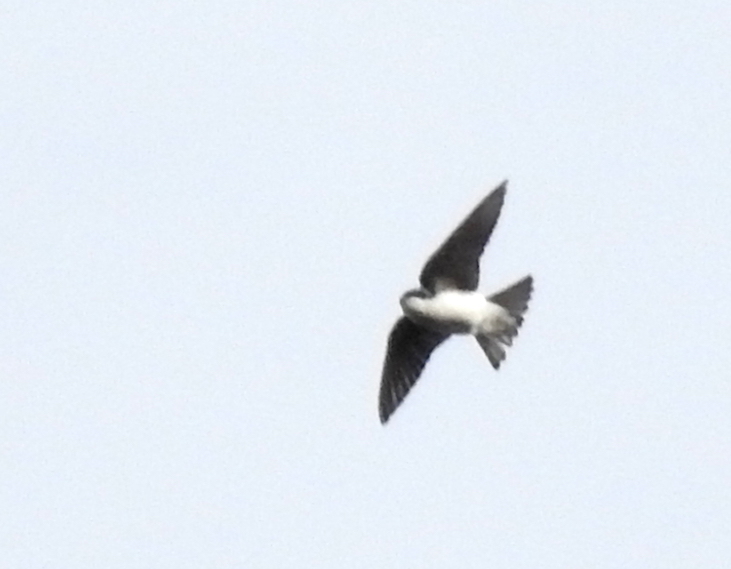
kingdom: Animalia
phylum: Chordata
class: Aves
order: Passeriformes
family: Hirundinidae
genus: Tachycineta
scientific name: Tachycineta bicolor
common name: Tree swallow
